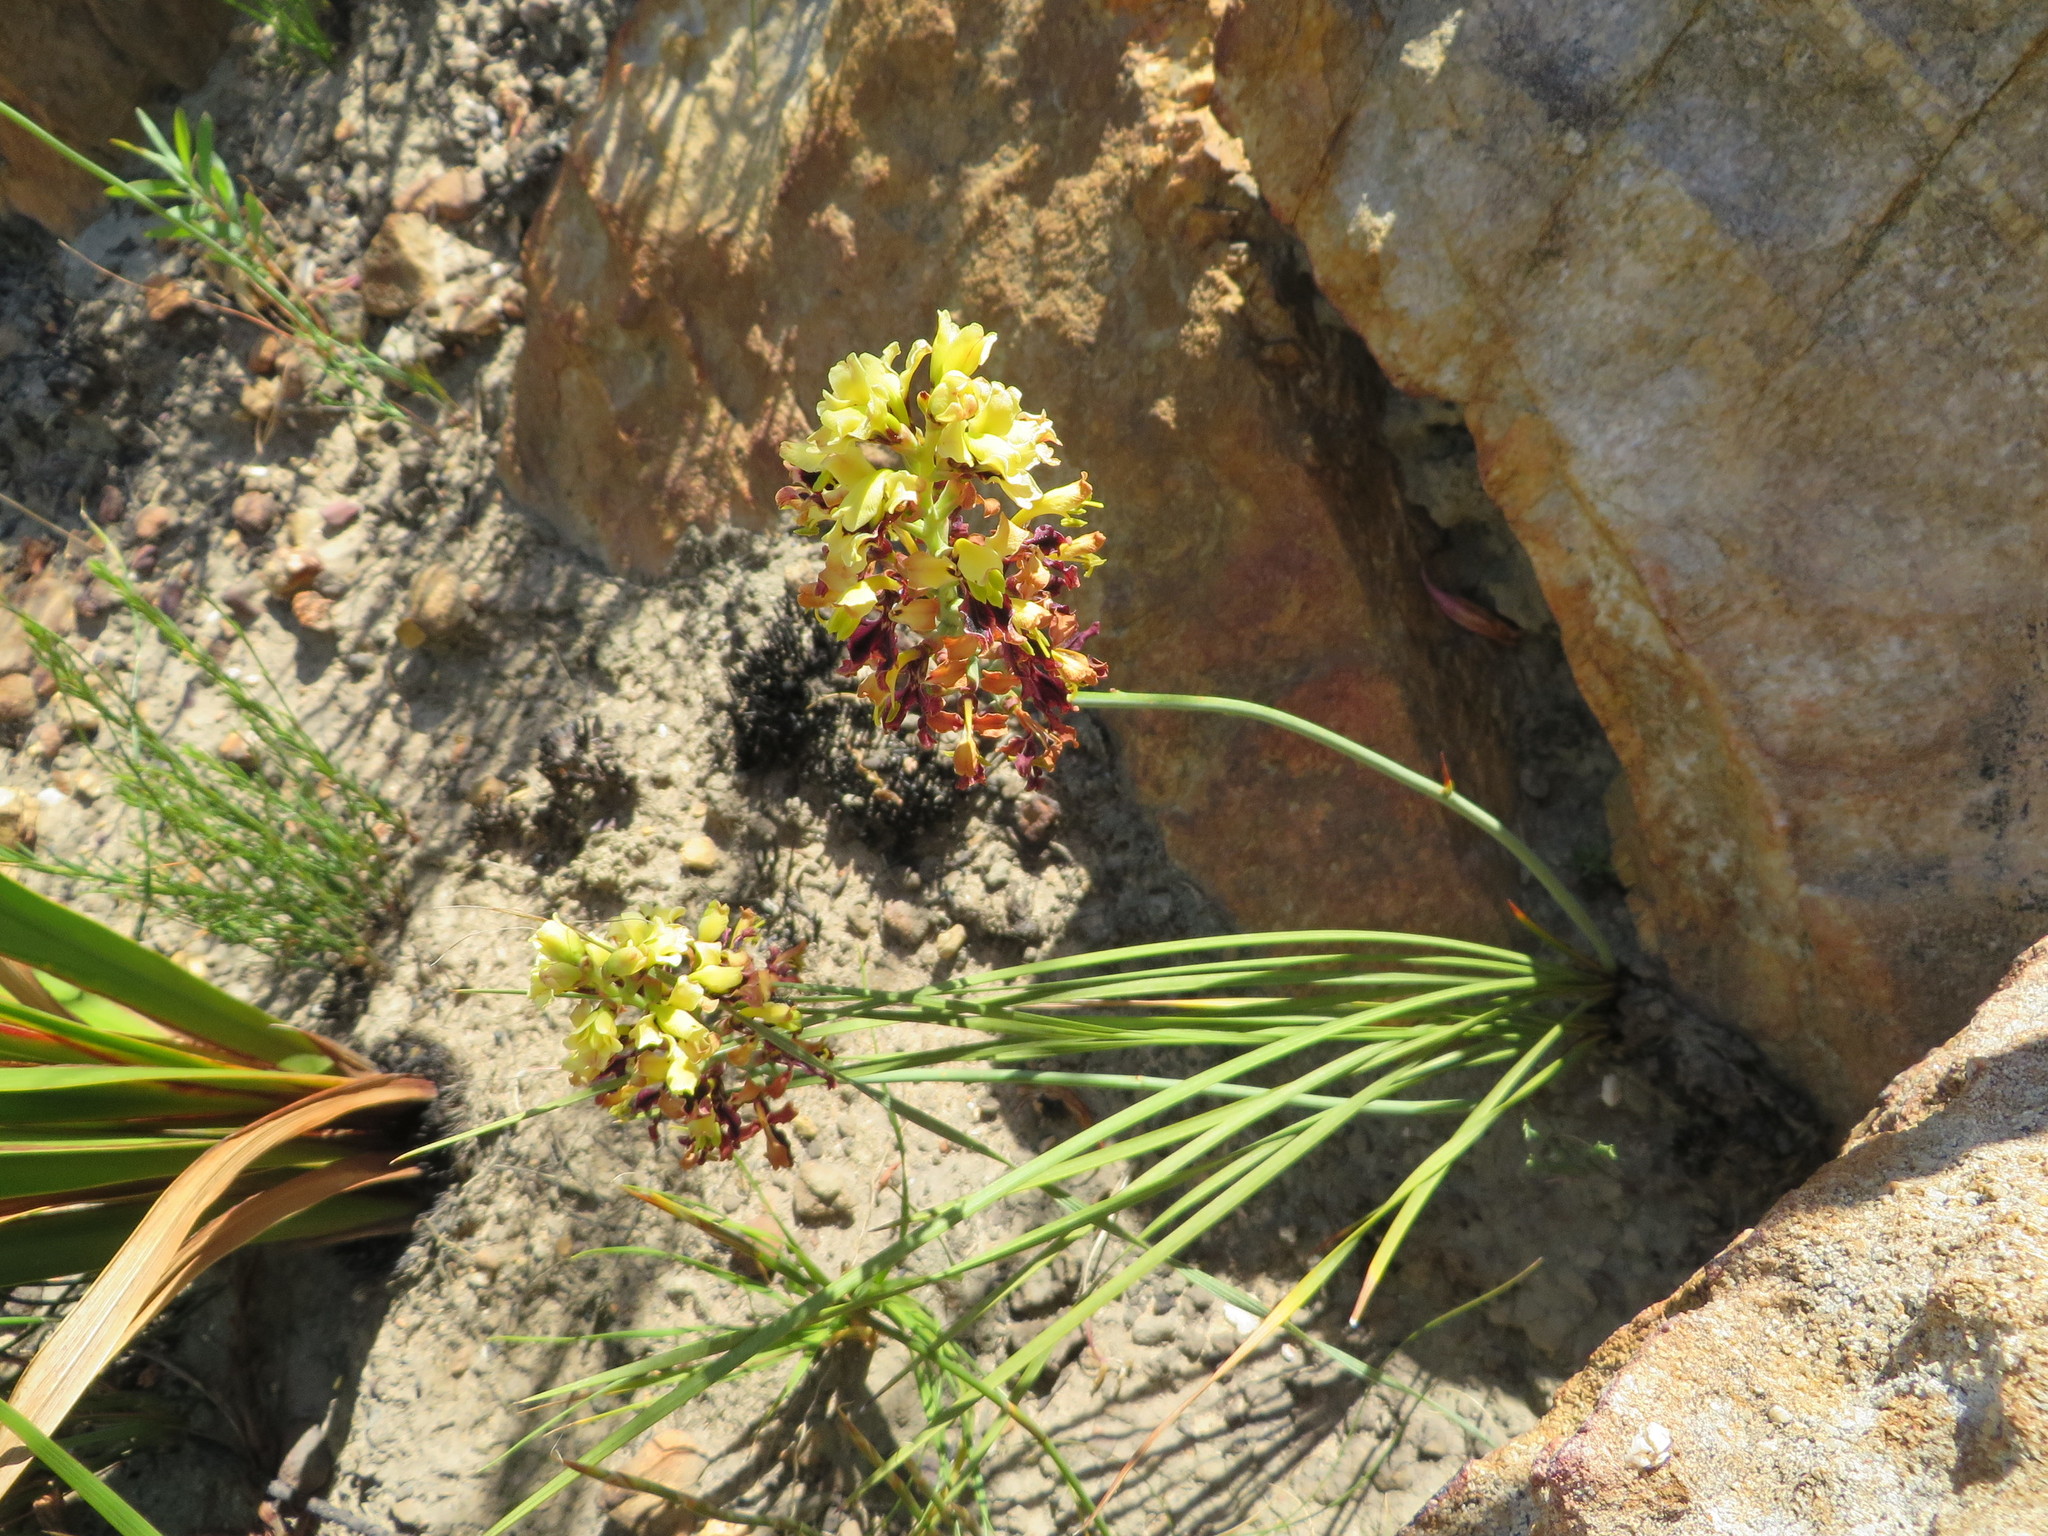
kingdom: Plantae
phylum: Tracheophyta
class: Liliopsida
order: Asparagales
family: Iridaceae
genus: Tritoniopsis
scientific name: Tritoniopsis parviflora
